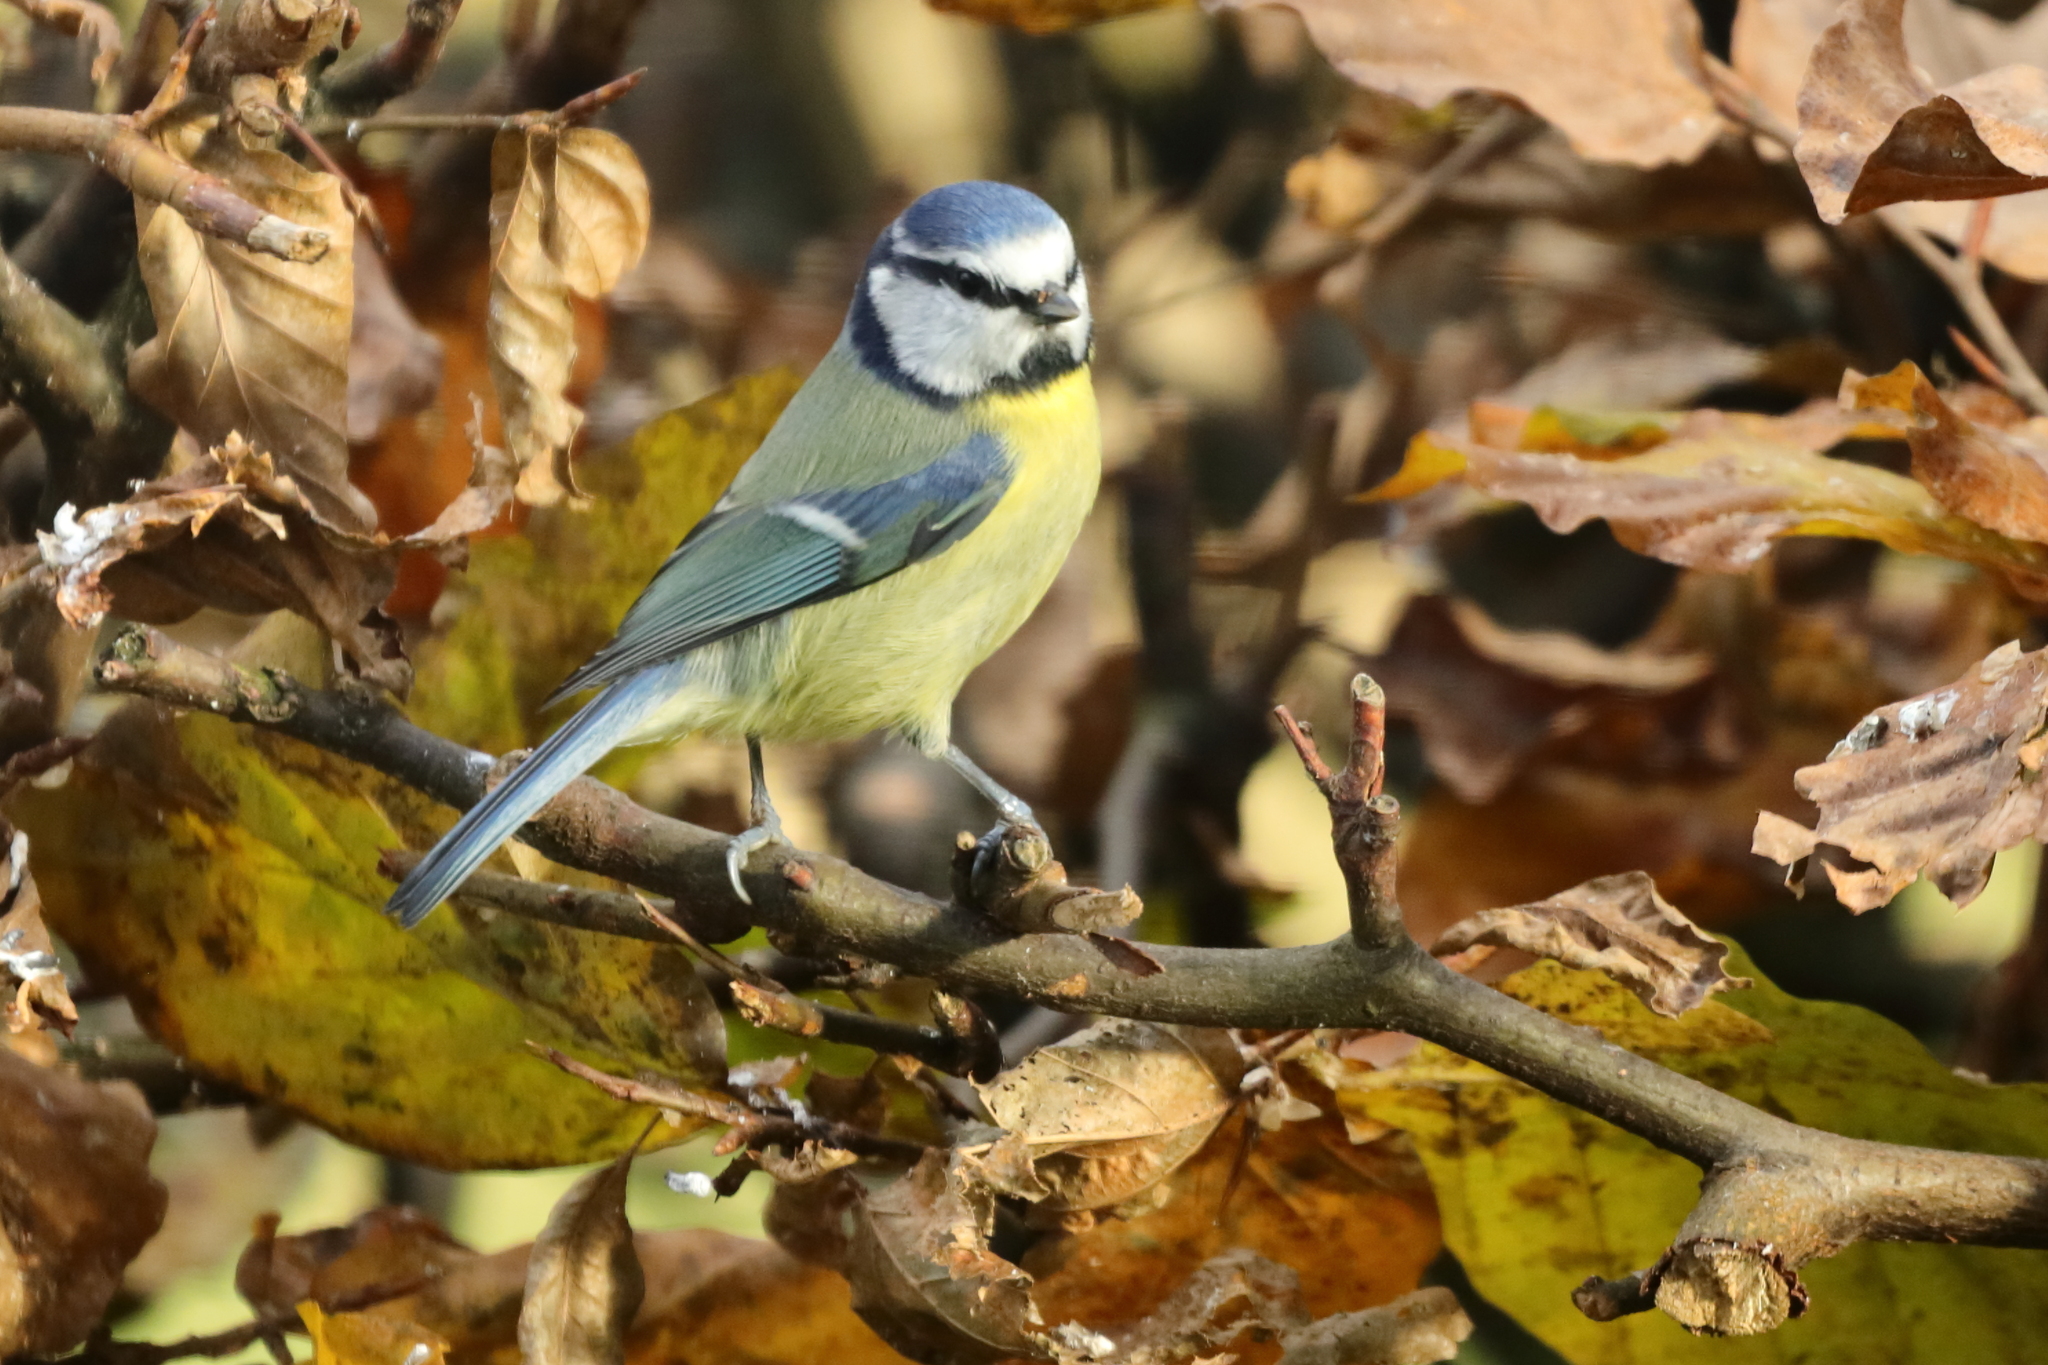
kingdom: Animalia
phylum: Chordata
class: Aves
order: Passeriformes
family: Paridae
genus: Cyanistes
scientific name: Cyanistes caeruleus
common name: Eurasian blue tit
